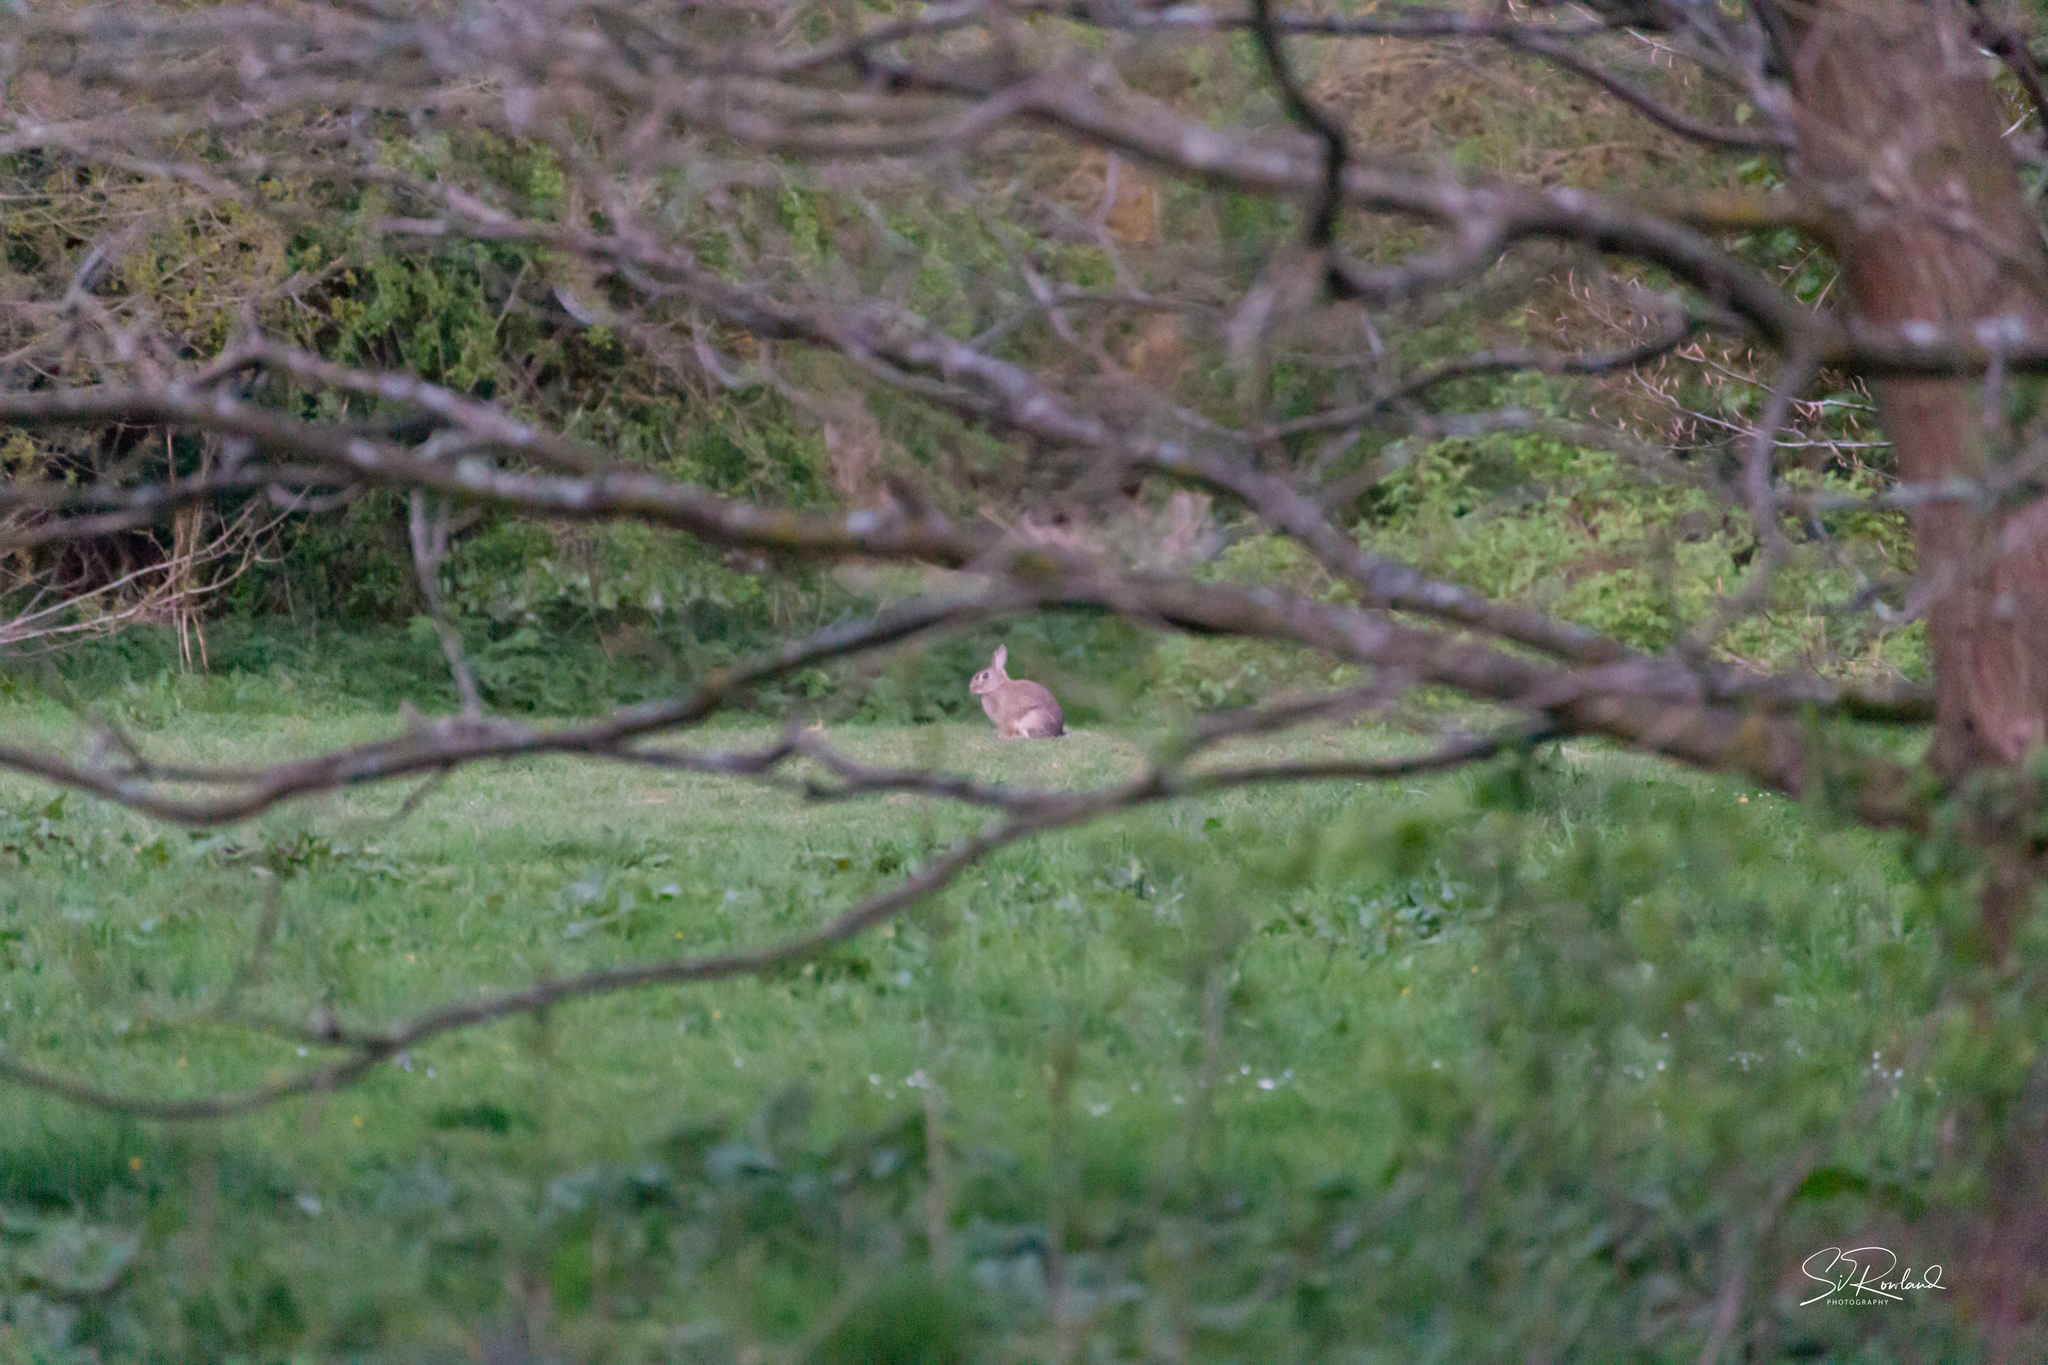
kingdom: Animalia
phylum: Chordata
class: Mammalia
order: Lagomorpha
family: Leporidae
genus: Oryctolagus
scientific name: Oryctolagus cuniculus
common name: European rabbit
